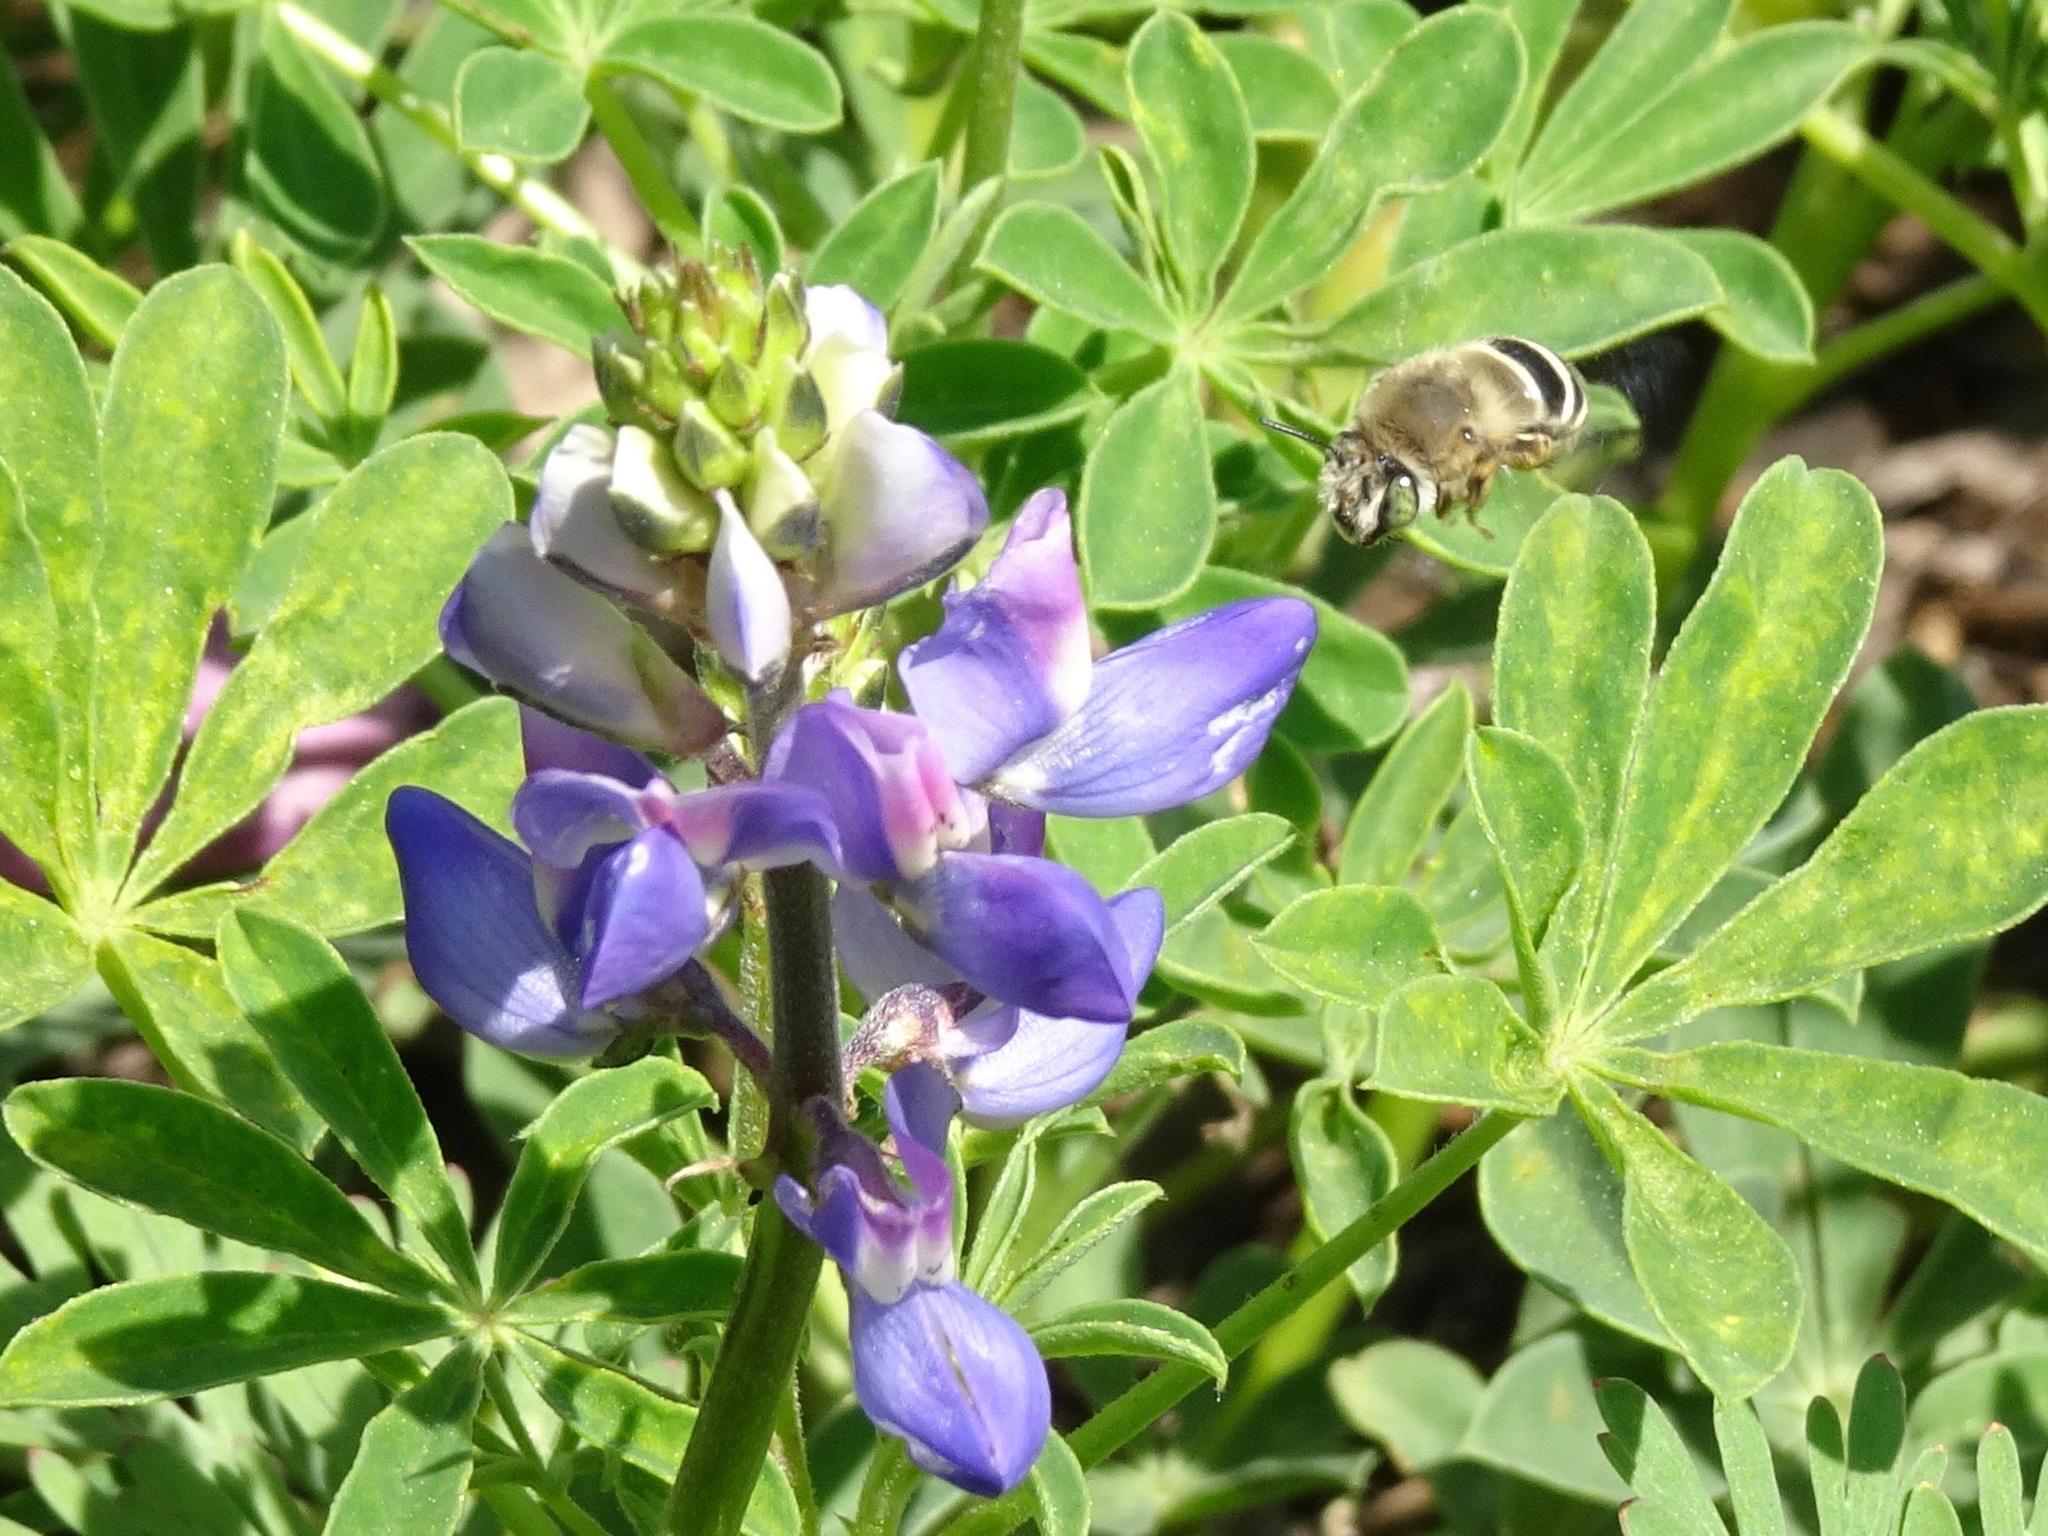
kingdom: Animalia
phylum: Arthropoda
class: Insecta
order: Hymenoptera
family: Apidae
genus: Anthophora
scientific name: Anthophora californica
